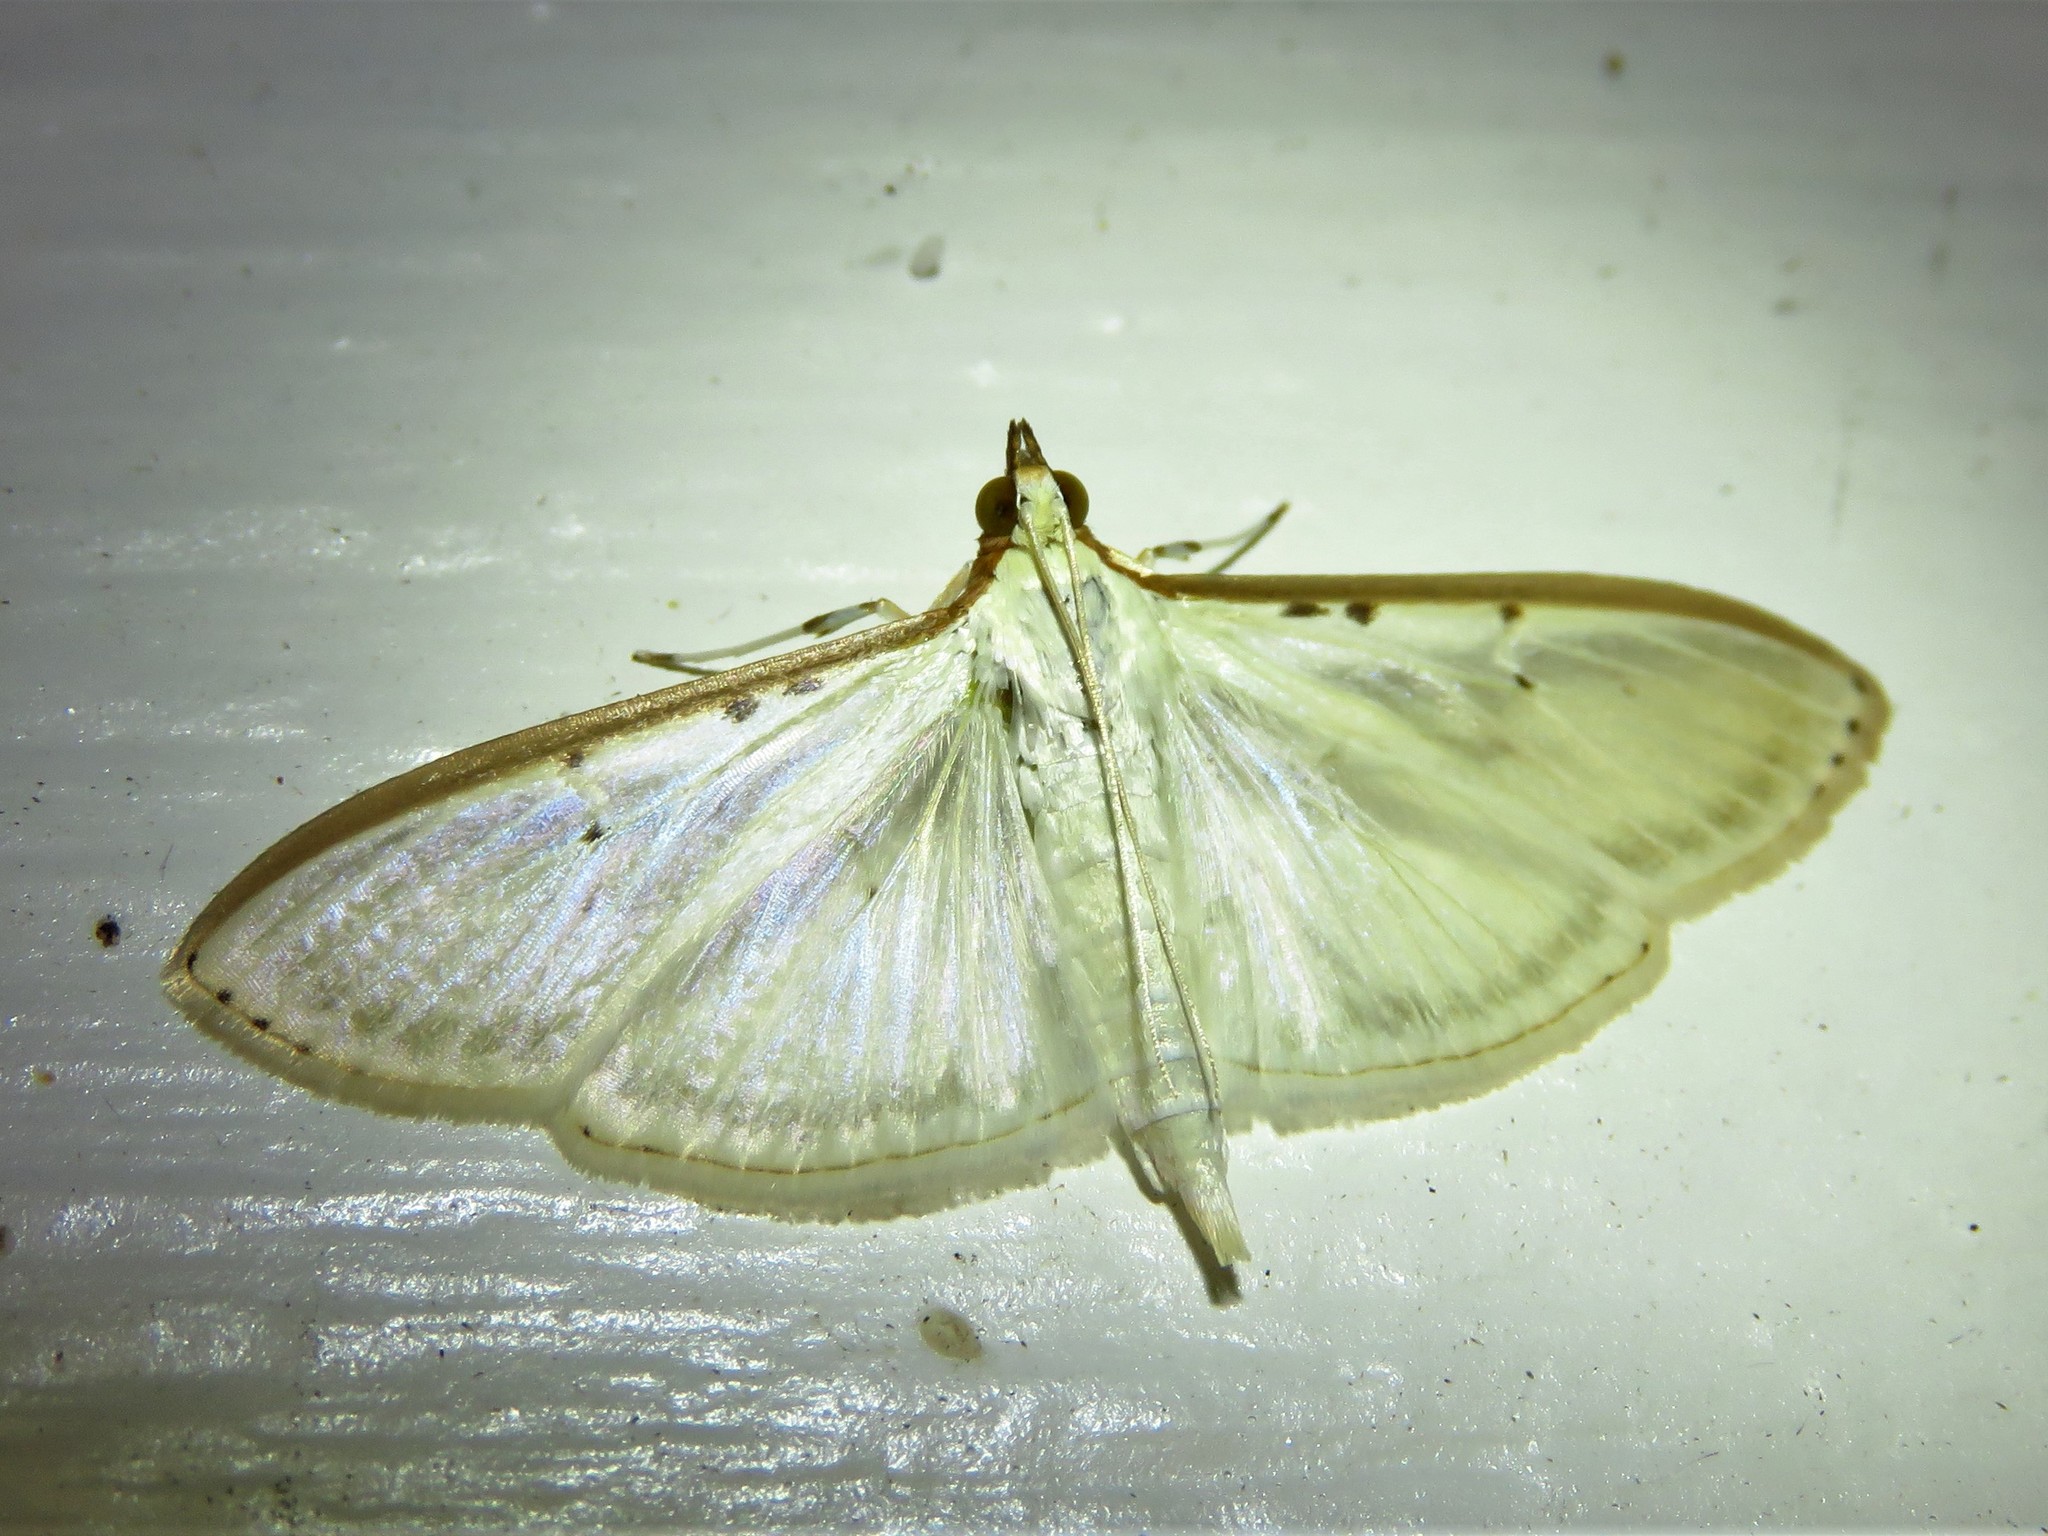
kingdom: Animalia
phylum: Arthropoda
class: Insecta
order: Lepidoptera
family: Crambidae
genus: Palpita
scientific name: Palpita quadristigmalis
